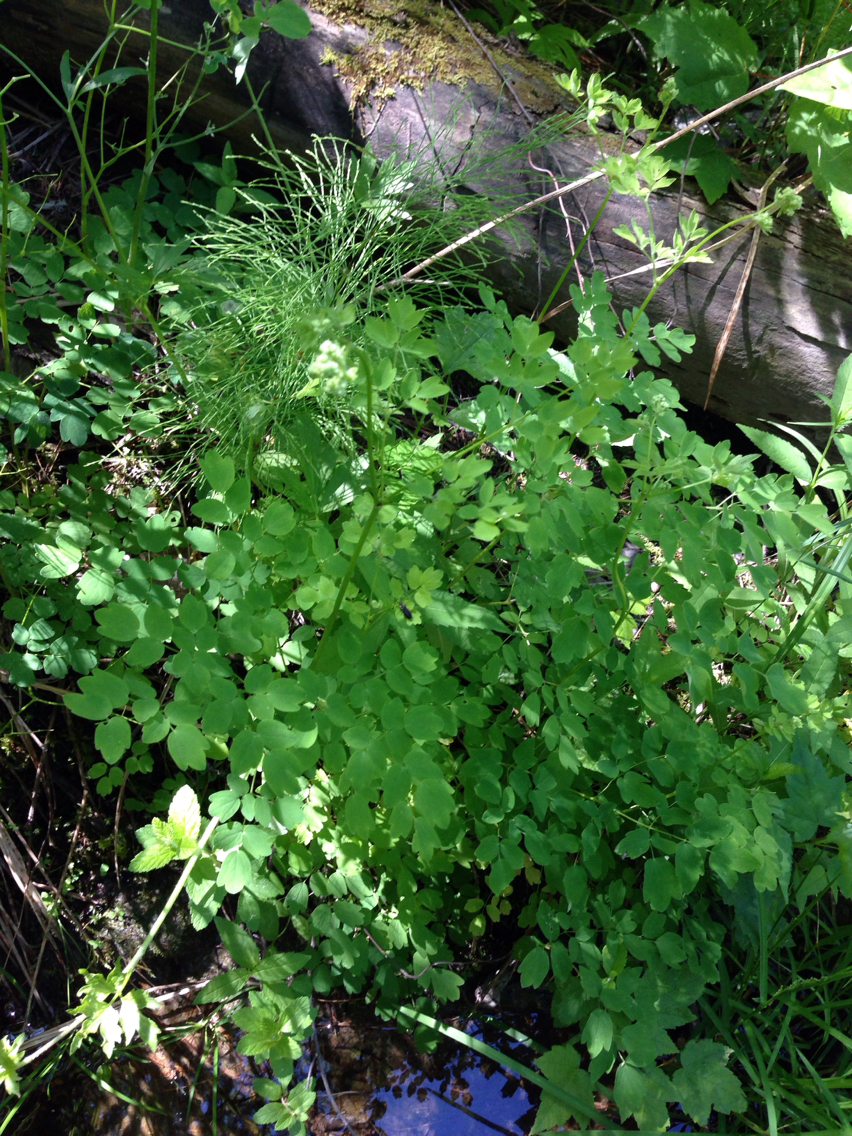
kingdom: Plantae
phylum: Tracheophyta
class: Magnoliopsida
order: Ranunculales
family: Ranunculaceae
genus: Thalictrum
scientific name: Thalictrum pubescens
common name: King-of-the-meadow
